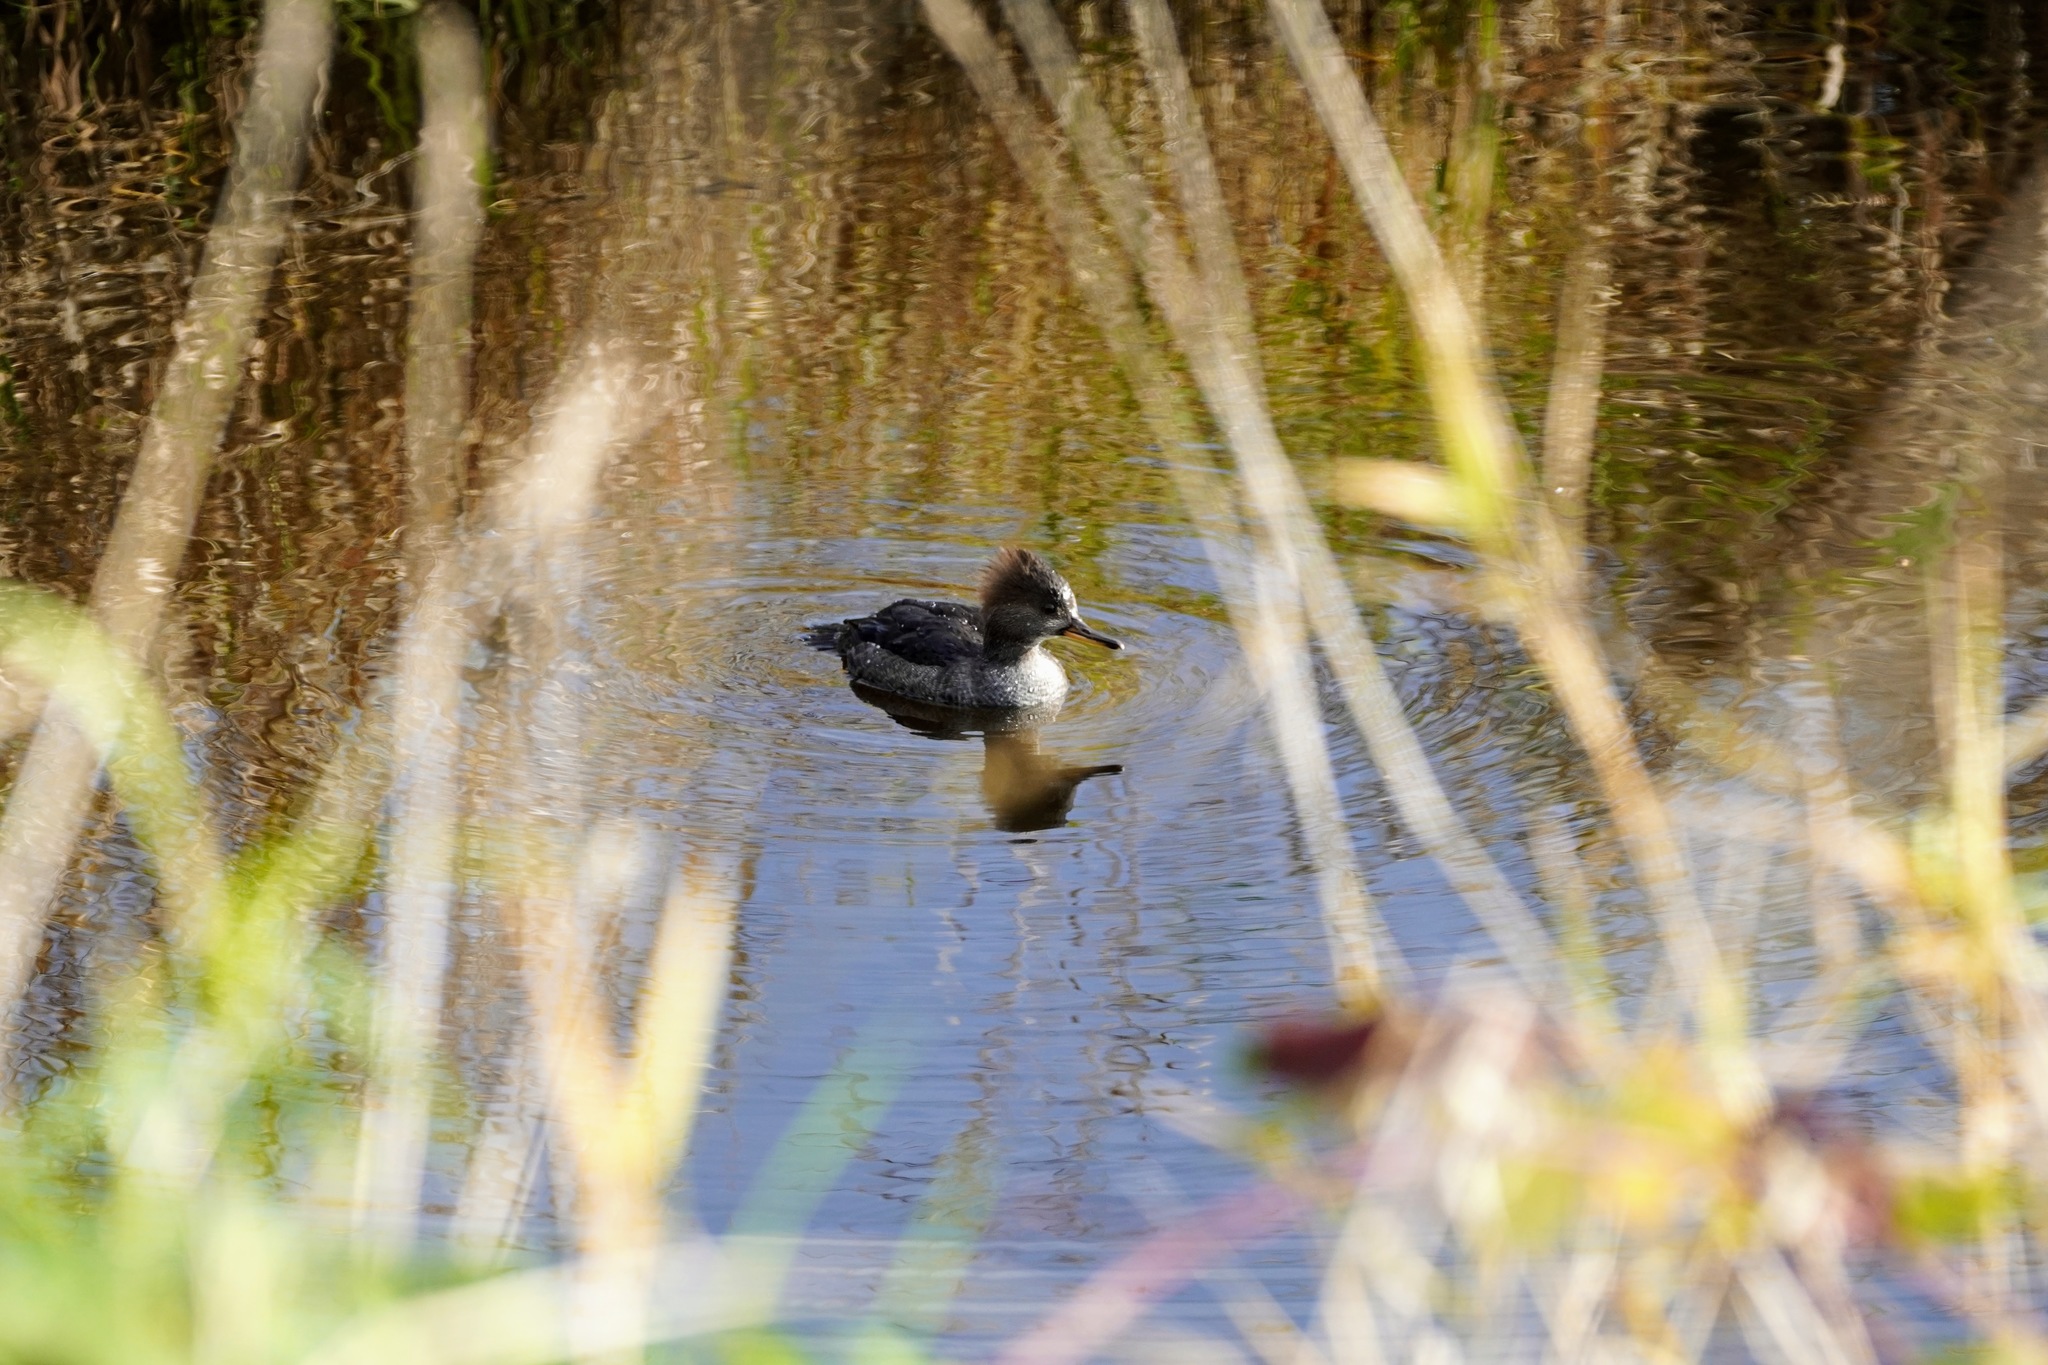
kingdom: Animalia
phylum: Chordata
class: Aves
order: Anseriformes
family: Anatidae
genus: Lophodytes
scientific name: Lophodytes cucullatus
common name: Hooded merganser
